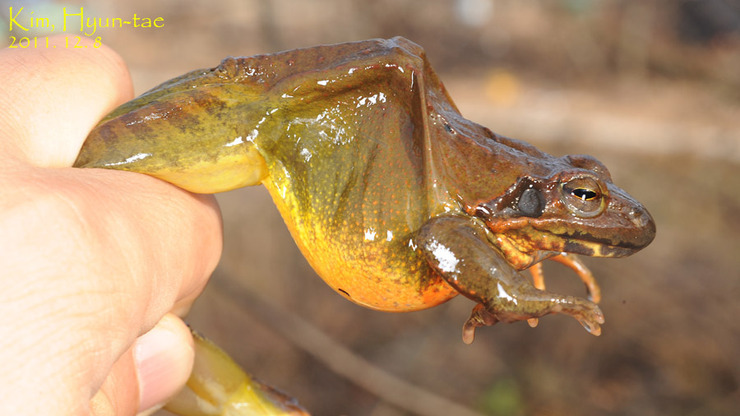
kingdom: Animalia
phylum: Chordata
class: Amphibia
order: Anura
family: Ranidae
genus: Rana
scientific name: Rana uenoi
